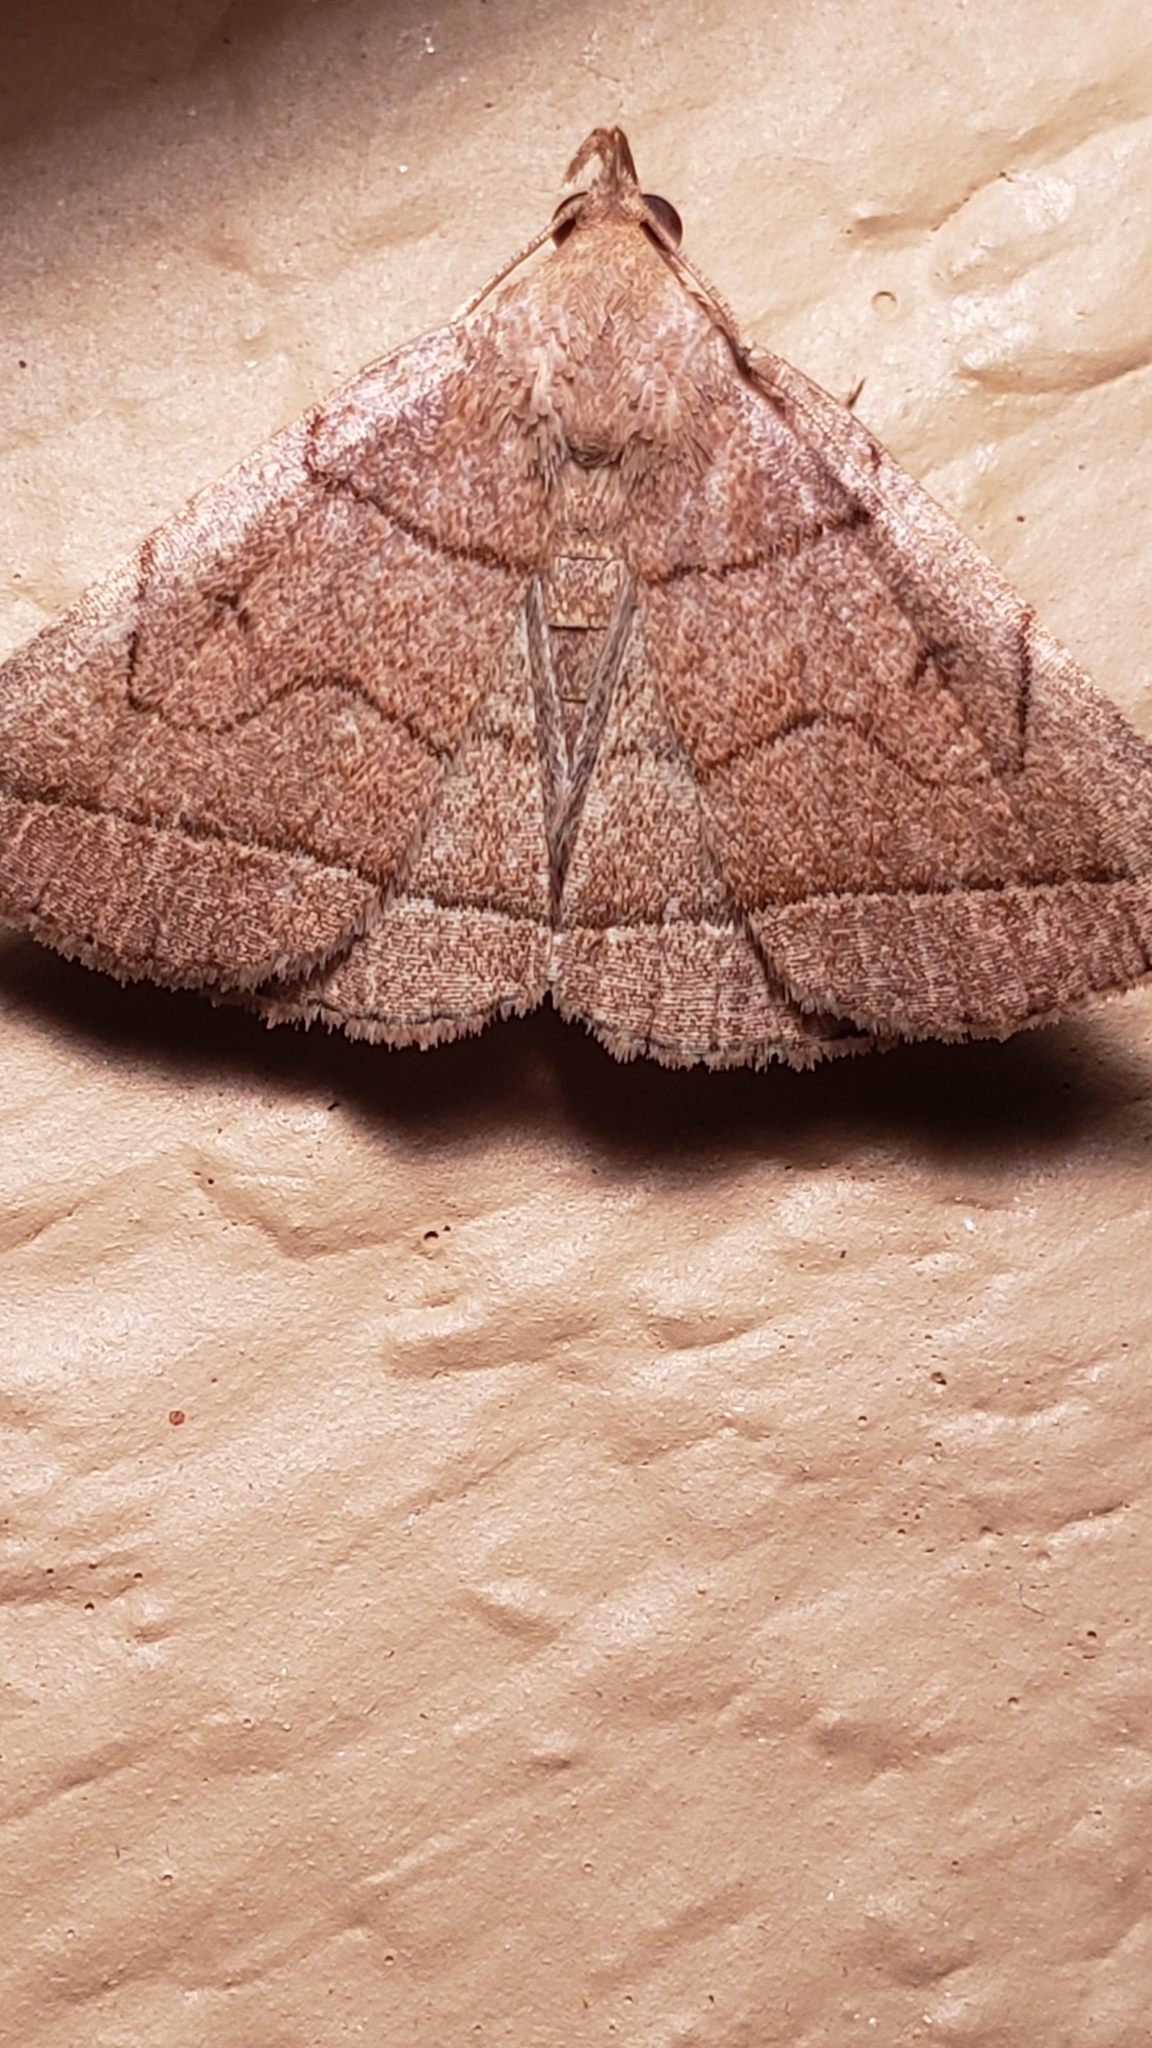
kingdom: Animalia
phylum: Arthropoda
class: Insecta
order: Lepidoptera
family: Erebidae
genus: Zanclognatha
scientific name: Zanclognatha cruralis
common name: Early fan-foot
